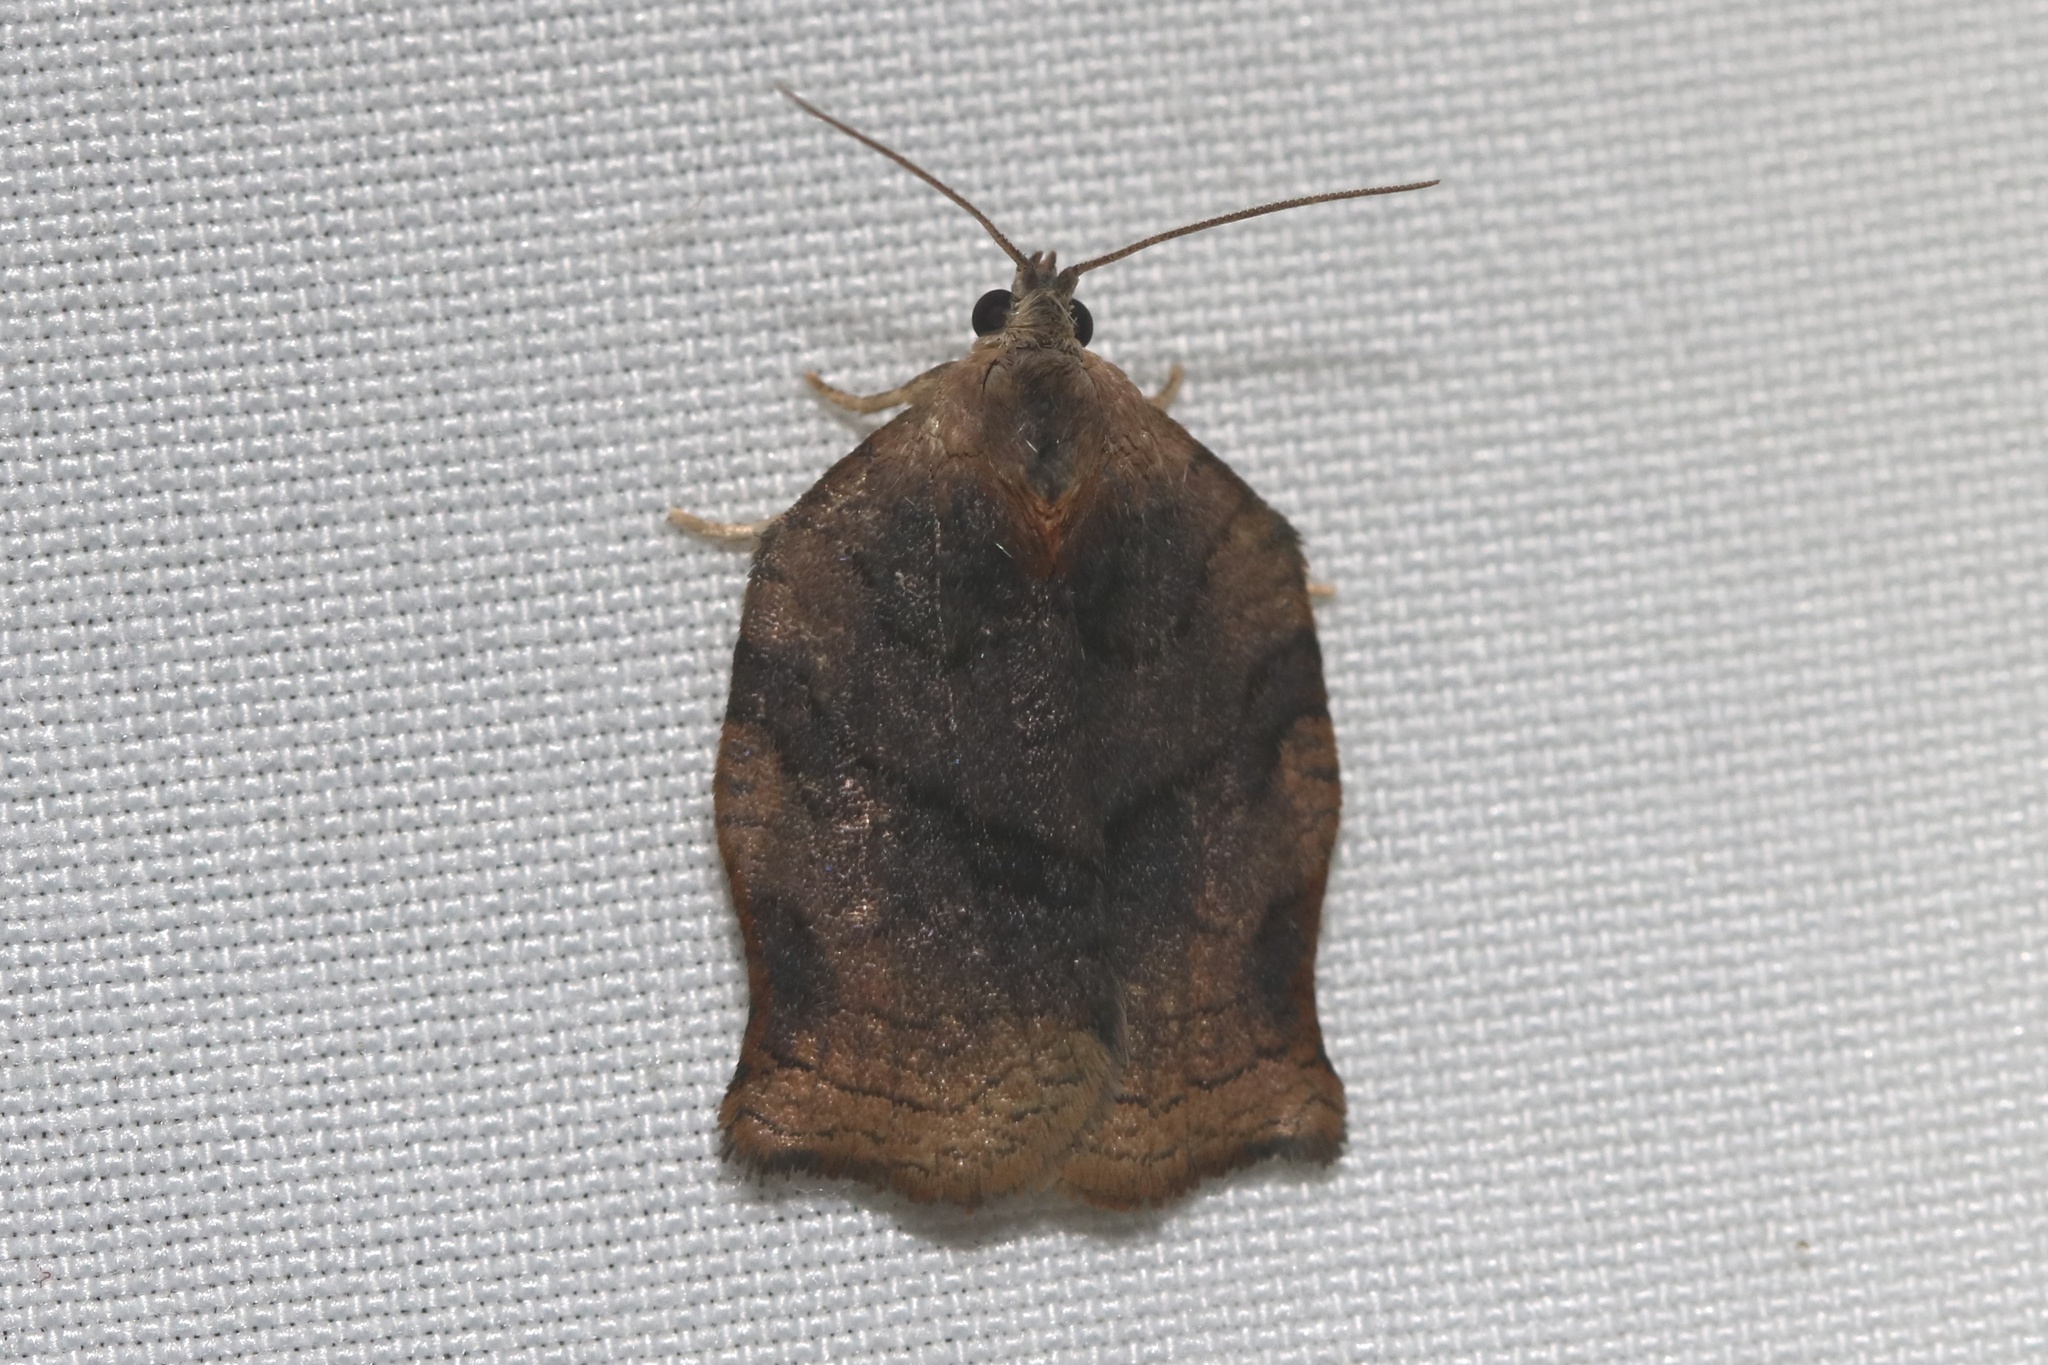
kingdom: Animalia
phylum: Arthropoda
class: Insecta
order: Lepidoptera
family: Tortricidae
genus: Archips
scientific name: Archips purpurana
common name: Omnivorous leafroller
